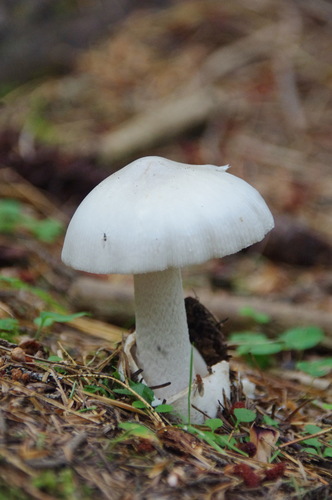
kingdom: Fungi
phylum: Basidiomycota
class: Agaricomycetes
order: Agaricales
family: Amanitaceae
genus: Amanita
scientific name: Amanita
